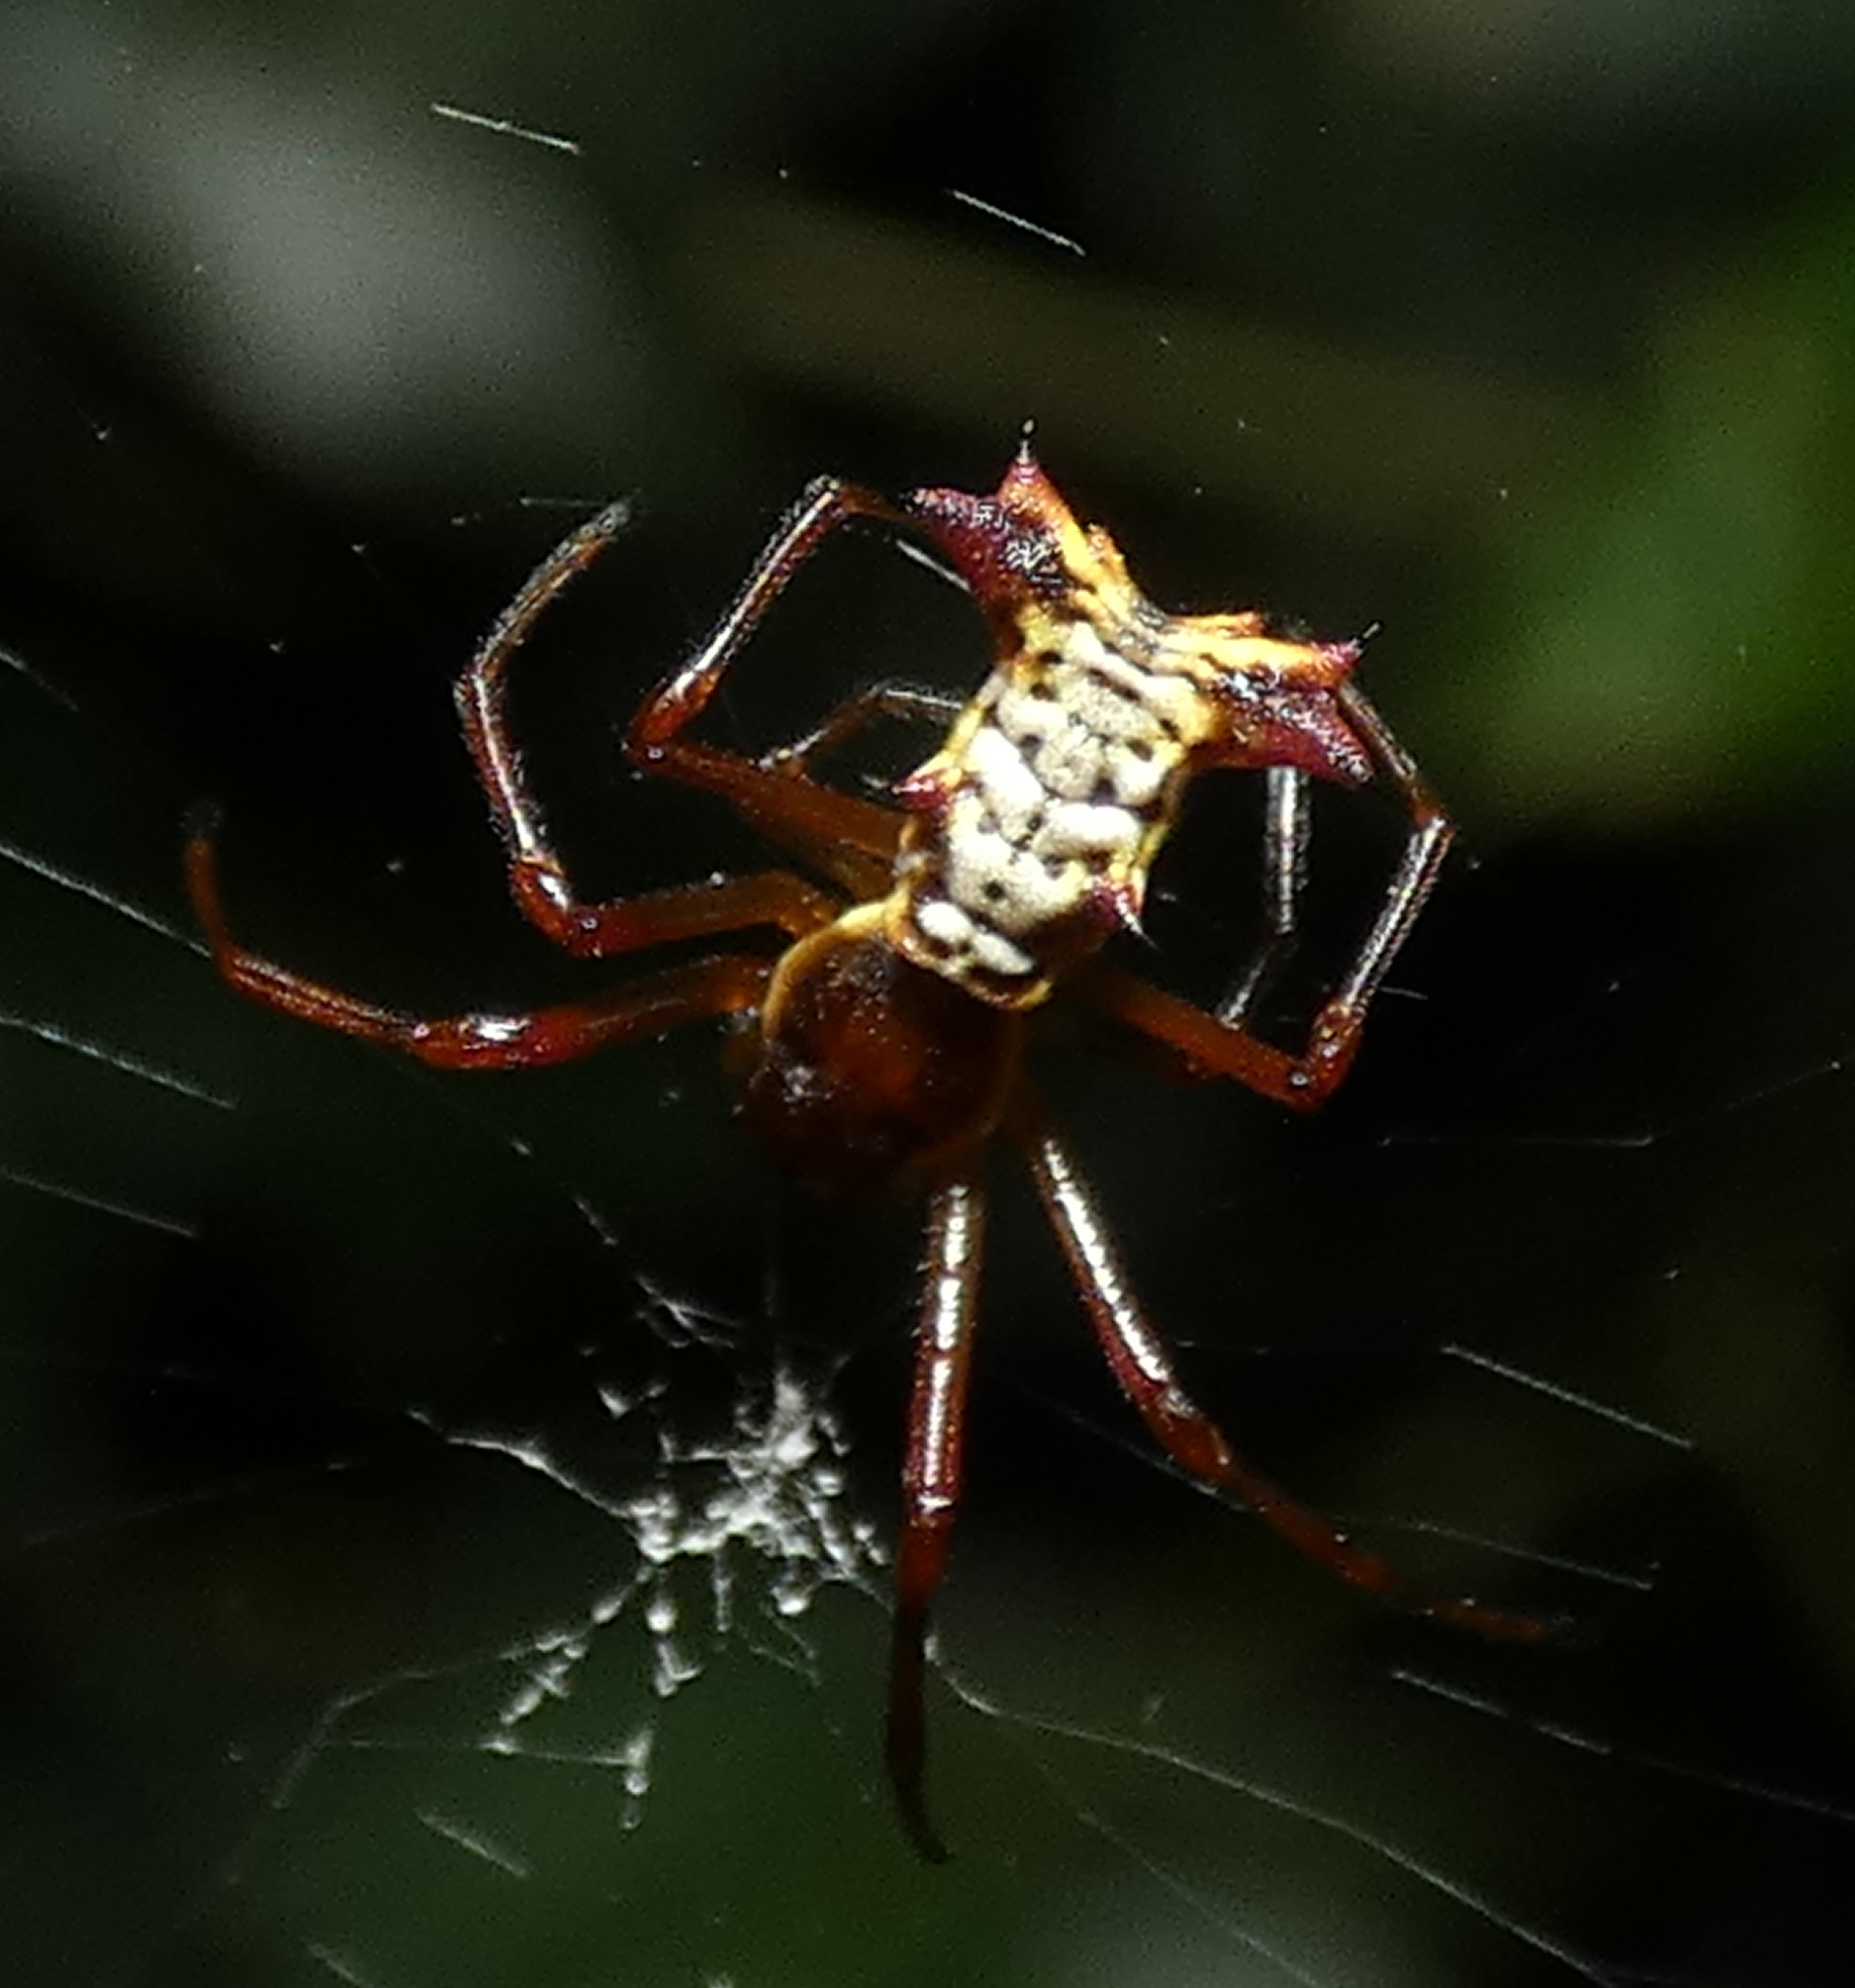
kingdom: Animalia
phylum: Arthropoda
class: Arachnida
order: Araneae
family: Araneidae
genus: Micrathena
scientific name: Micrathena fissispina
